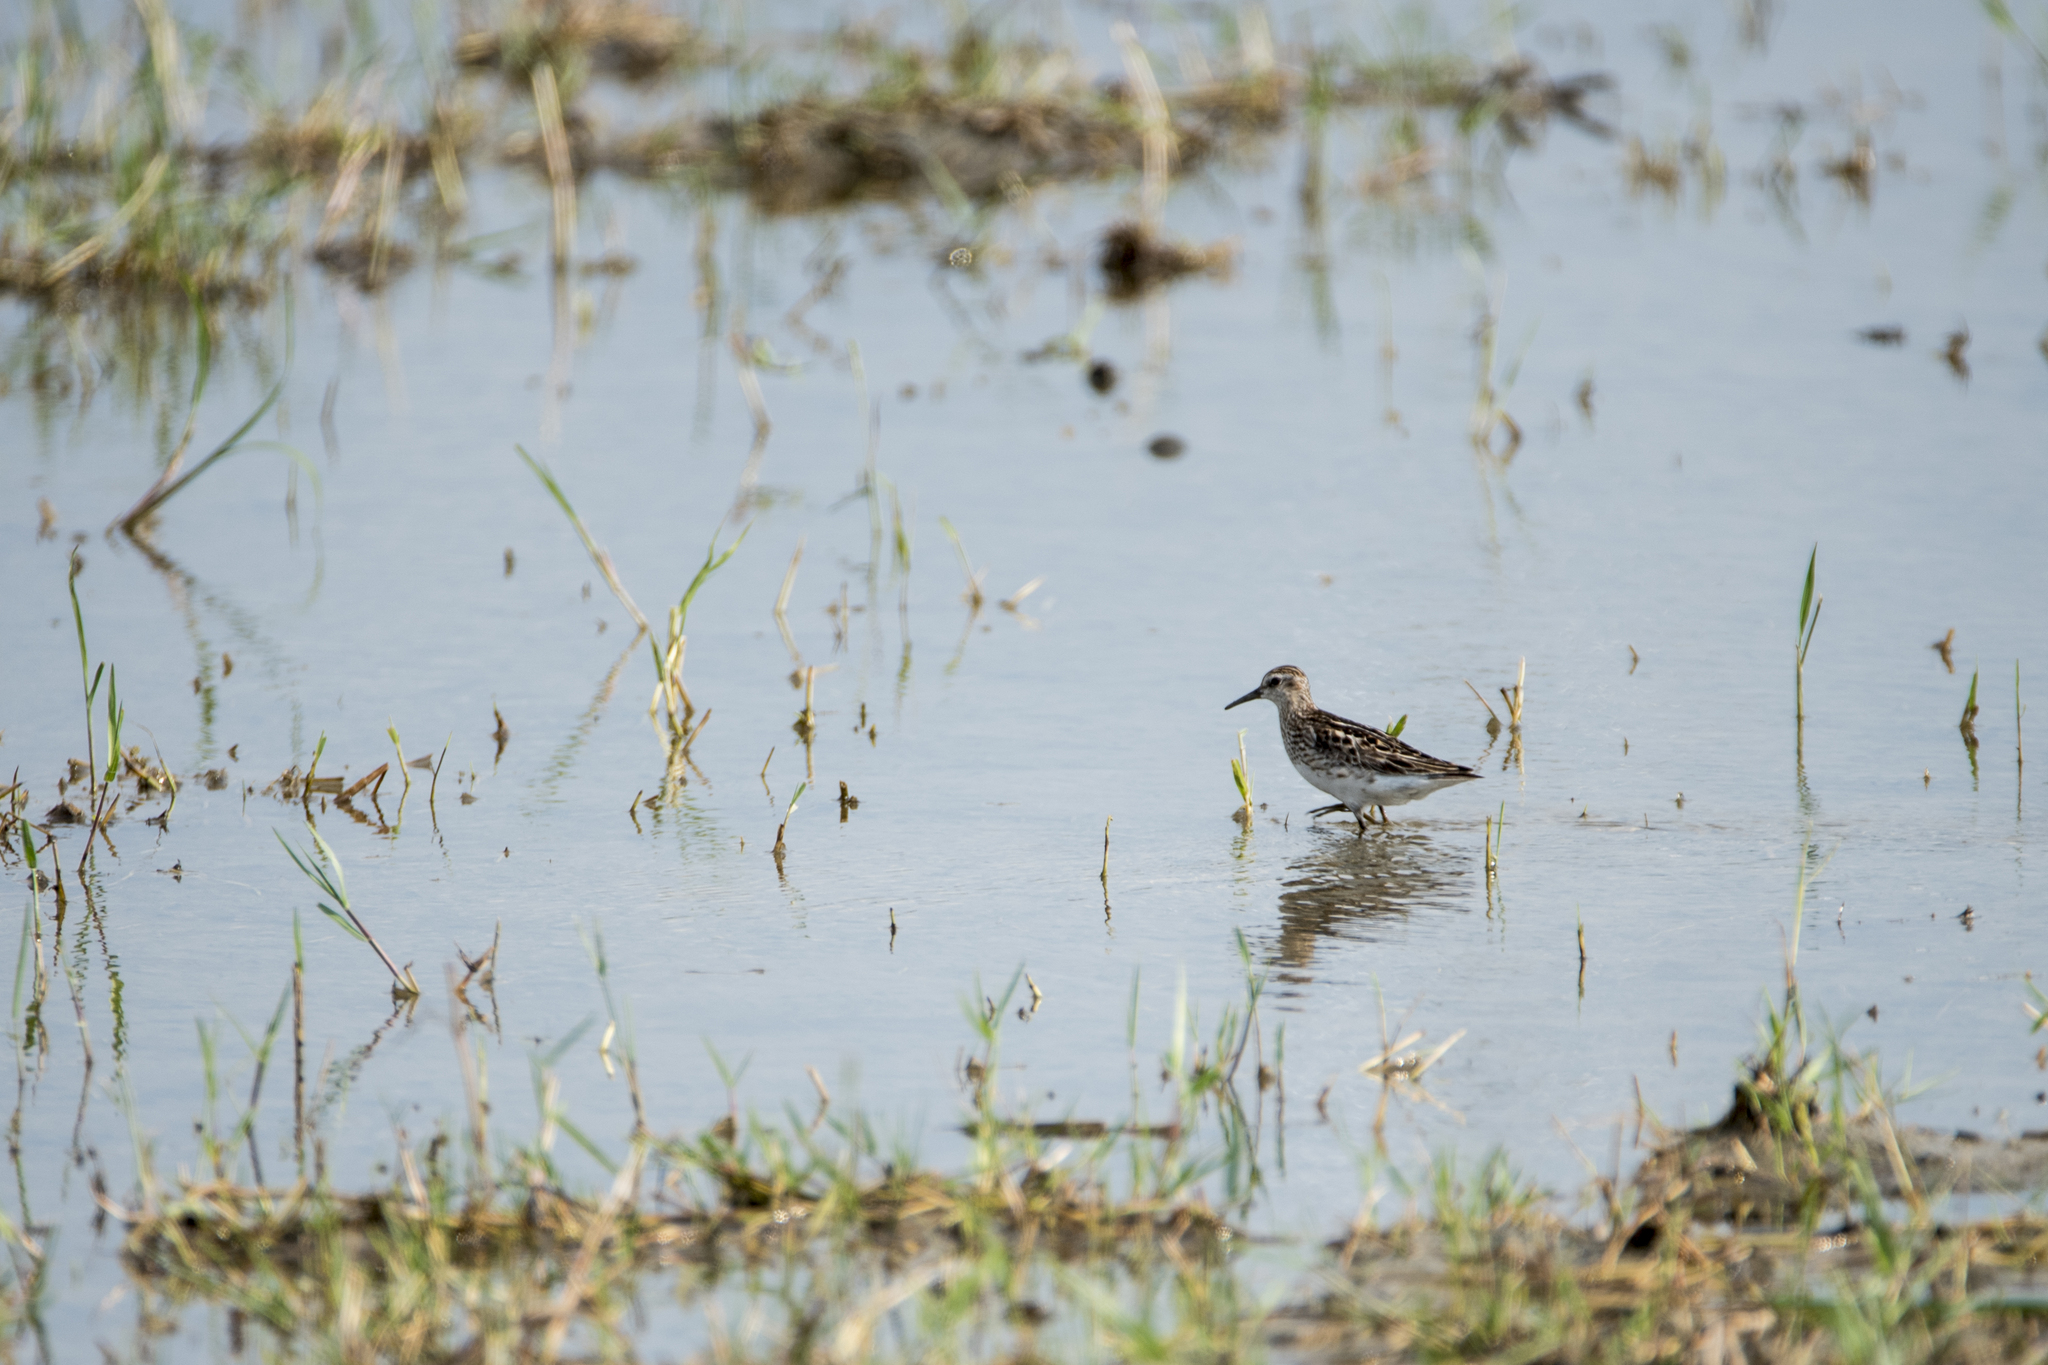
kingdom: Animalia
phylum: Chordata
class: Aves
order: Charadriiformes
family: Scolopacidae
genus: Calidris
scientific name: Calidris subminuta
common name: Long-toed stint
